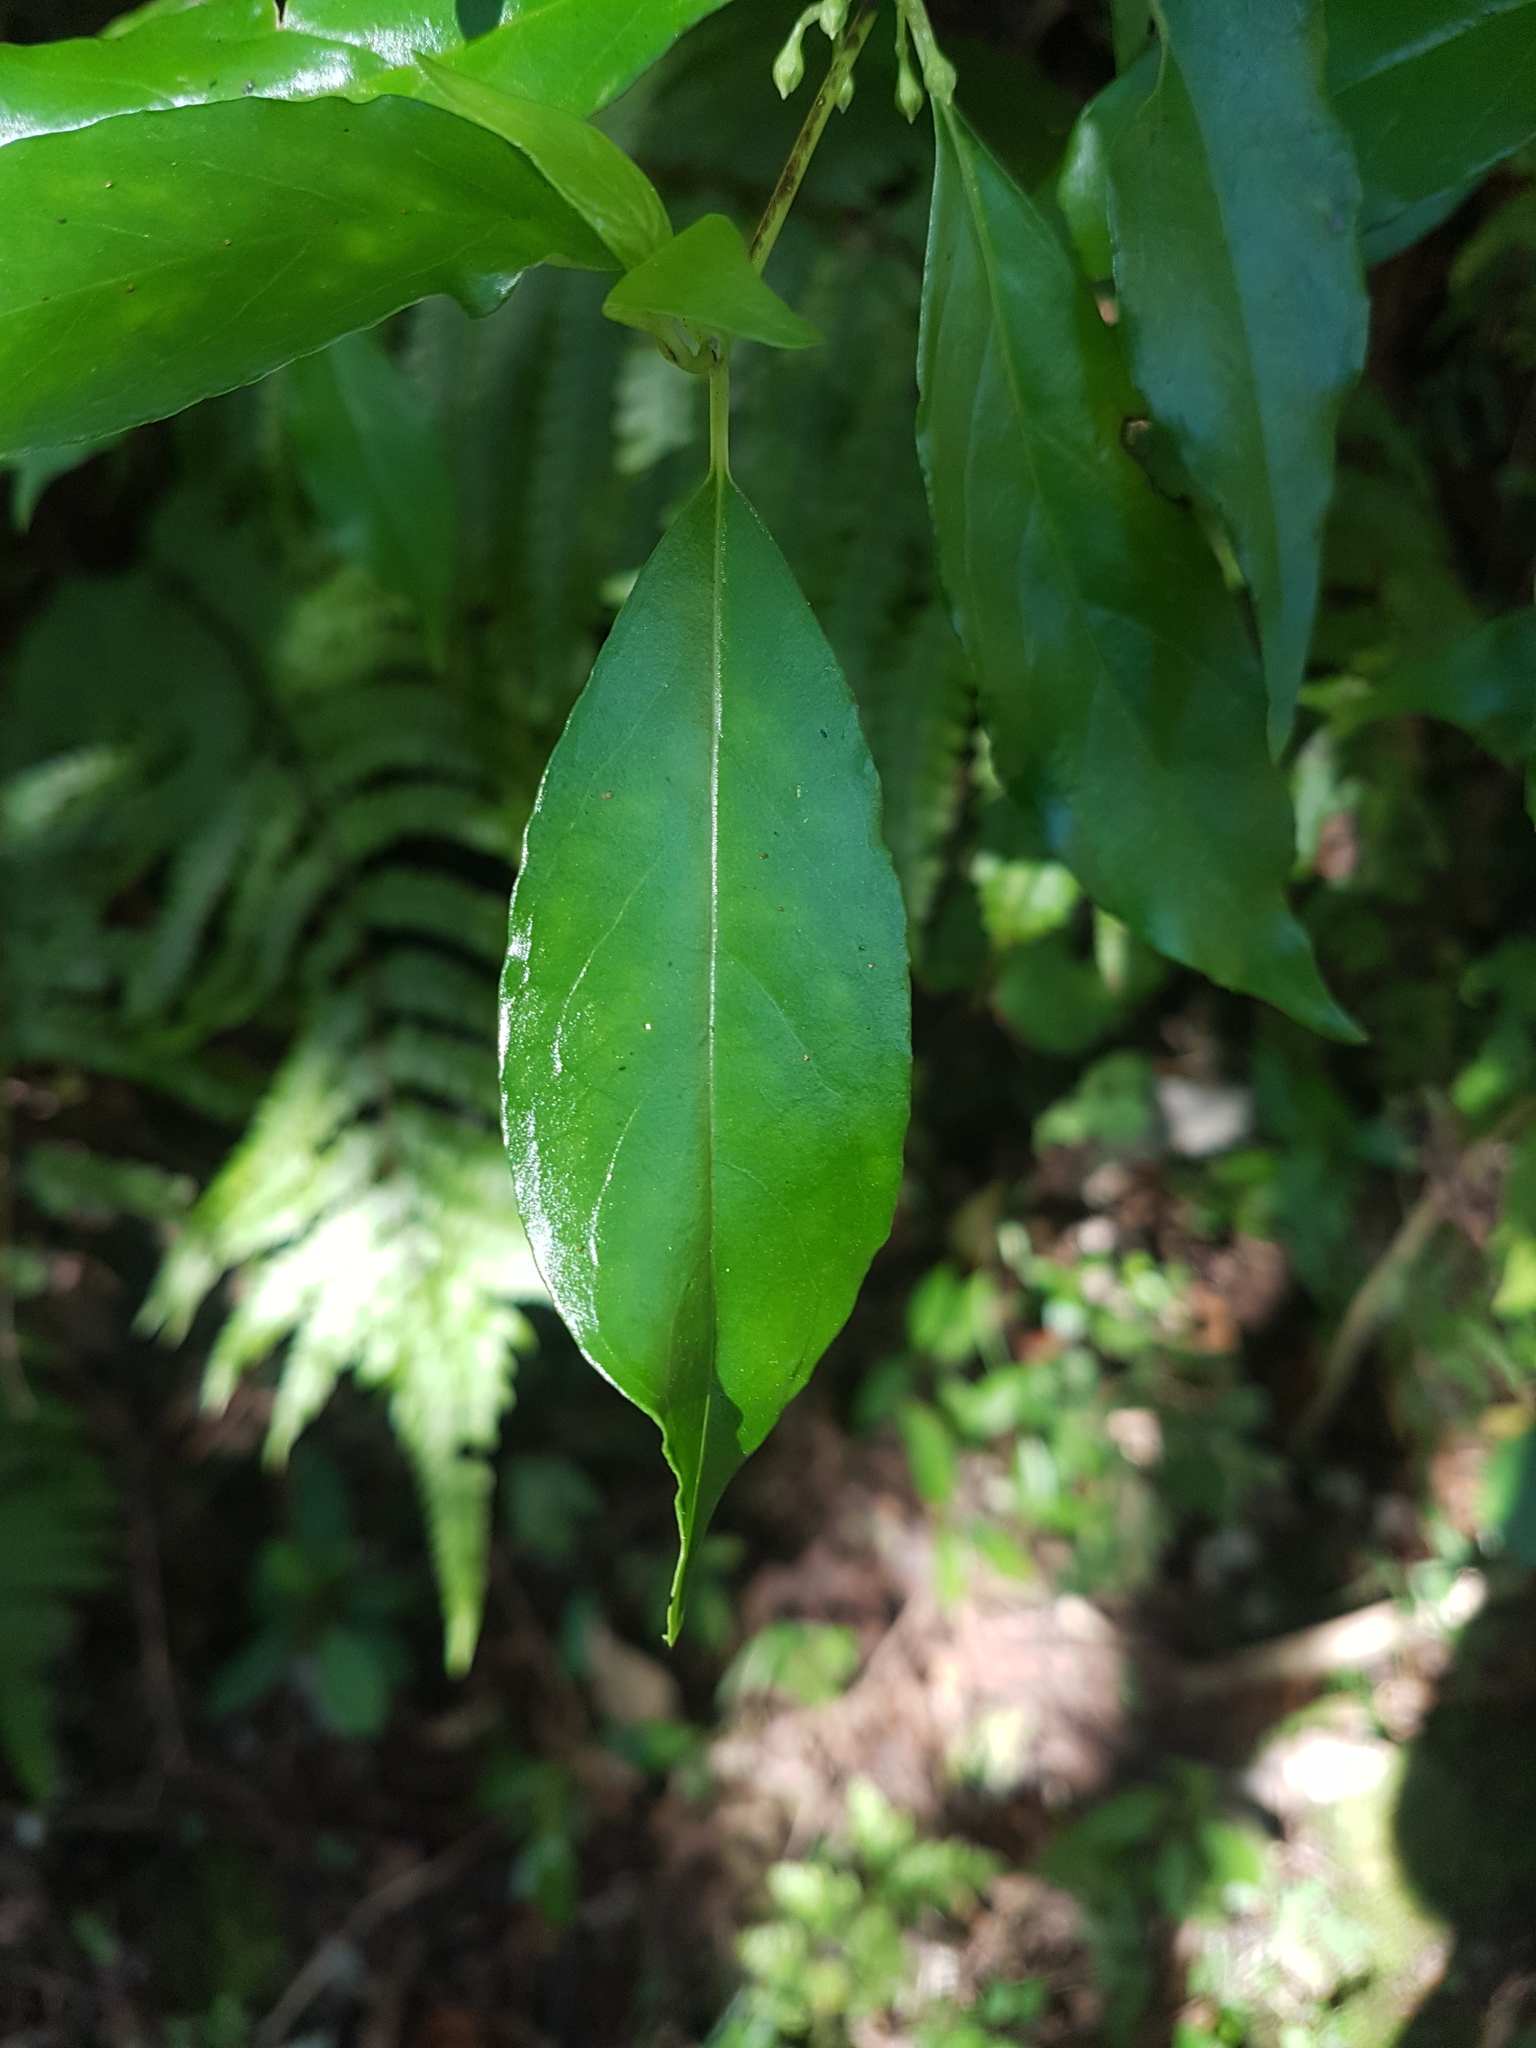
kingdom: Plantae
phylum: Tracheophyta
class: Magnoliopsida
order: Gentianales
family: Loganiaceae
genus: Geniostoma
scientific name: Geniostoma ligustrifolium
